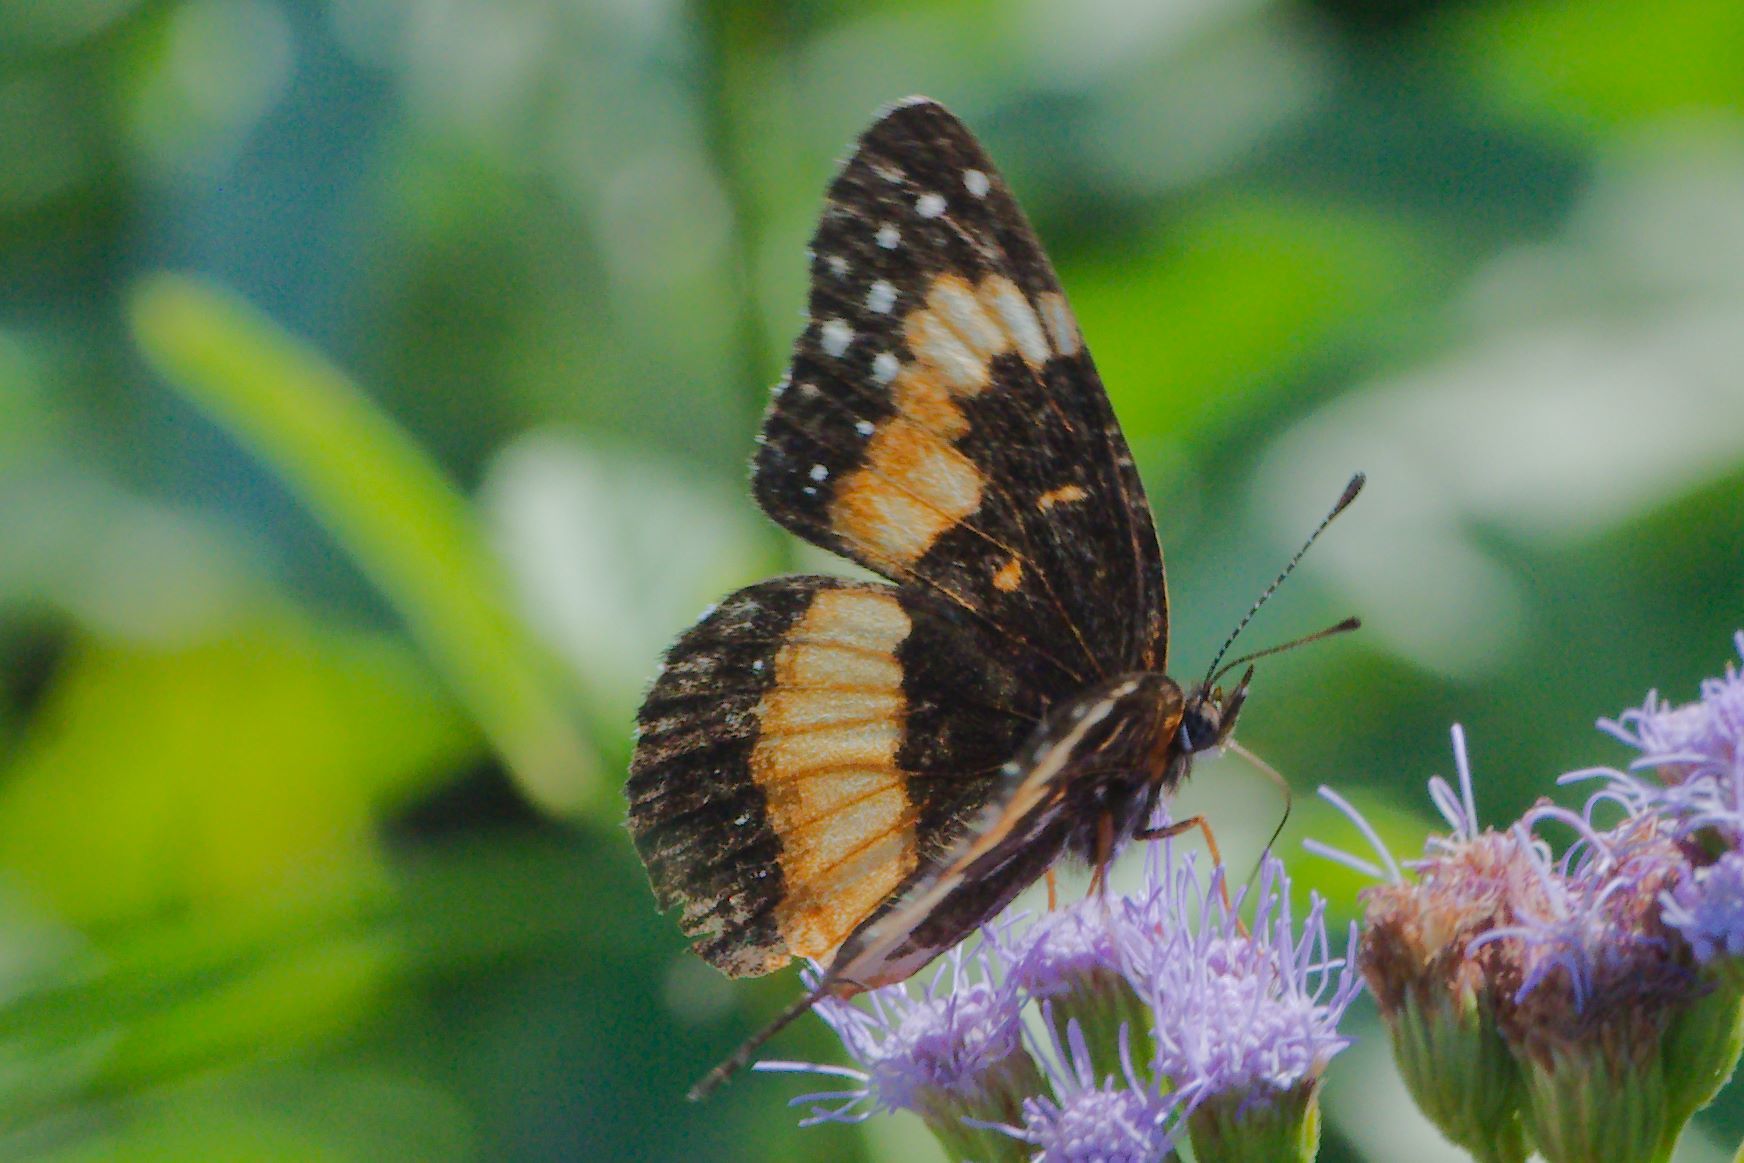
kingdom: Animalia
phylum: Arthropoda
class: Insecta
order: Lepidoptera
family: Nymphalidae
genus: Chlosyne
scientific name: Chlosyne lacinia
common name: Bordered patch
